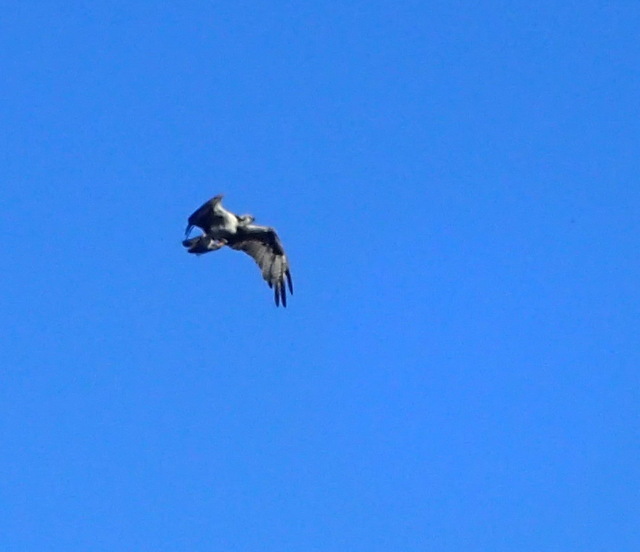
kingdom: Animalia
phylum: Chordata
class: Aves
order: Accipitriformes
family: Pandionidae
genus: Pandion
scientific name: Pandion haliaetus
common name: Osprey
